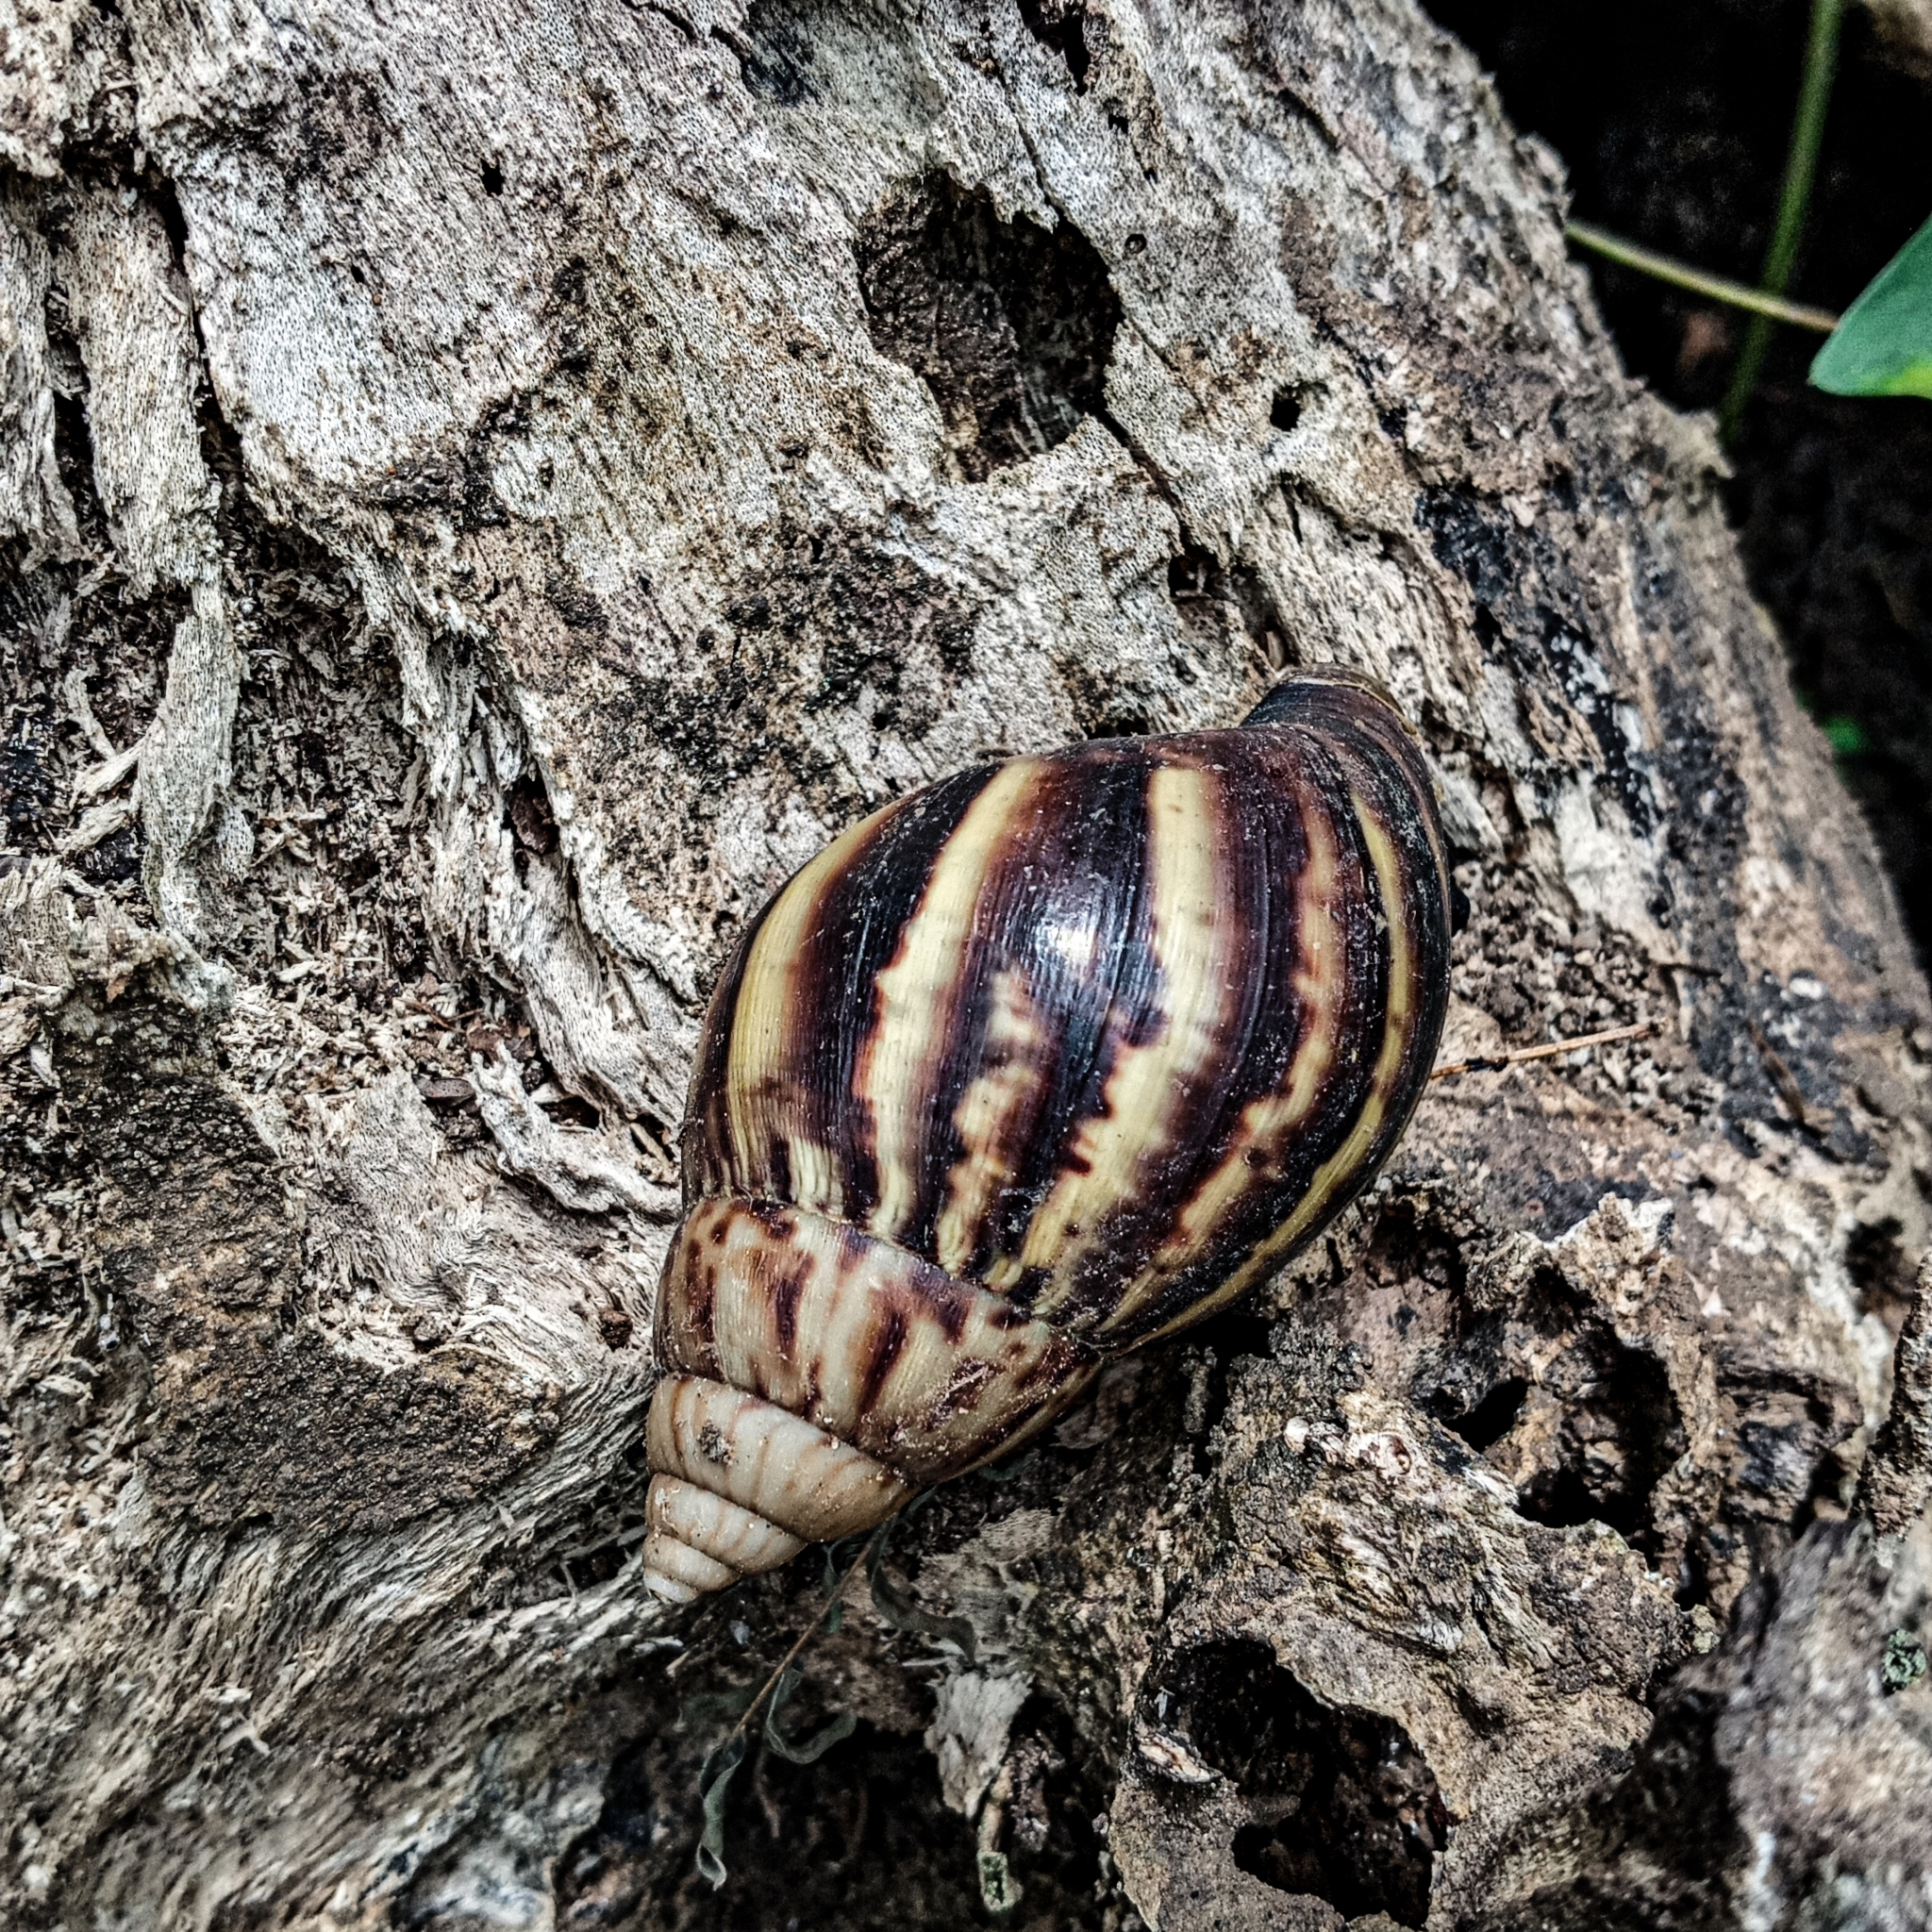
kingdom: Animalia
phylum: Mollusca
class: Gastropoda
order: Stylommatophora
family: Achatinidae
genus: Lissachatina
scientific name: Lissachatina fulica
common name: Giant african snail
